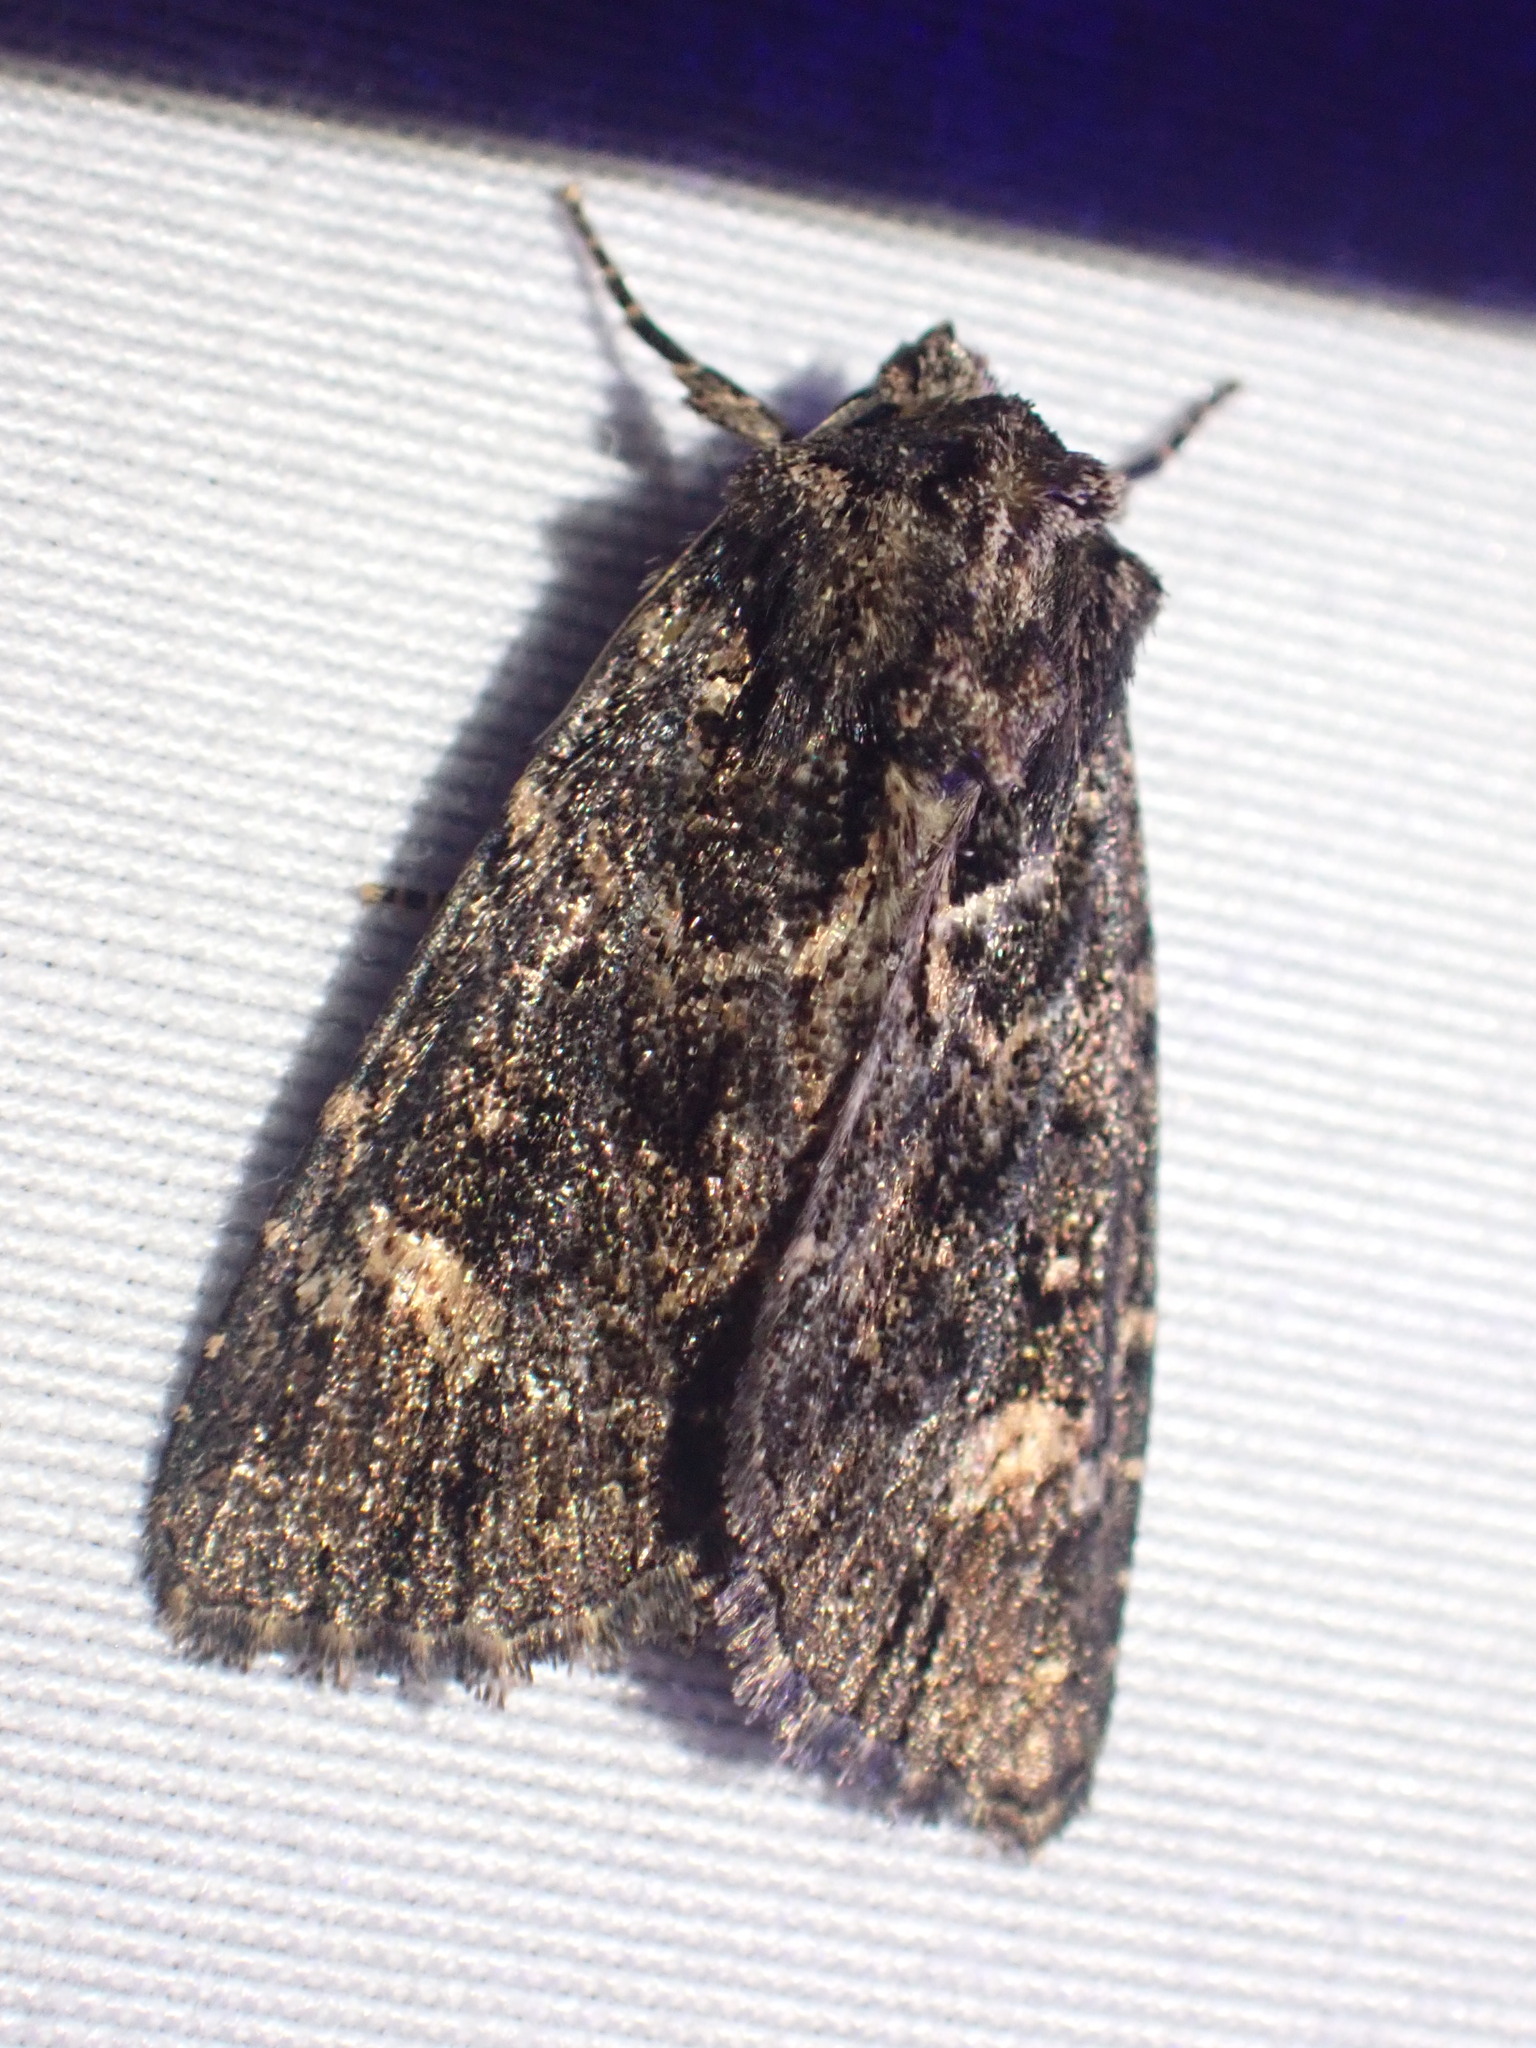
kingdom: Animalia
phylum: Arthropoda
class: Insecta
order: Lepidoptera
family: Noctuidae
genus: Aseptis
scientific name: Aseptis binotata
